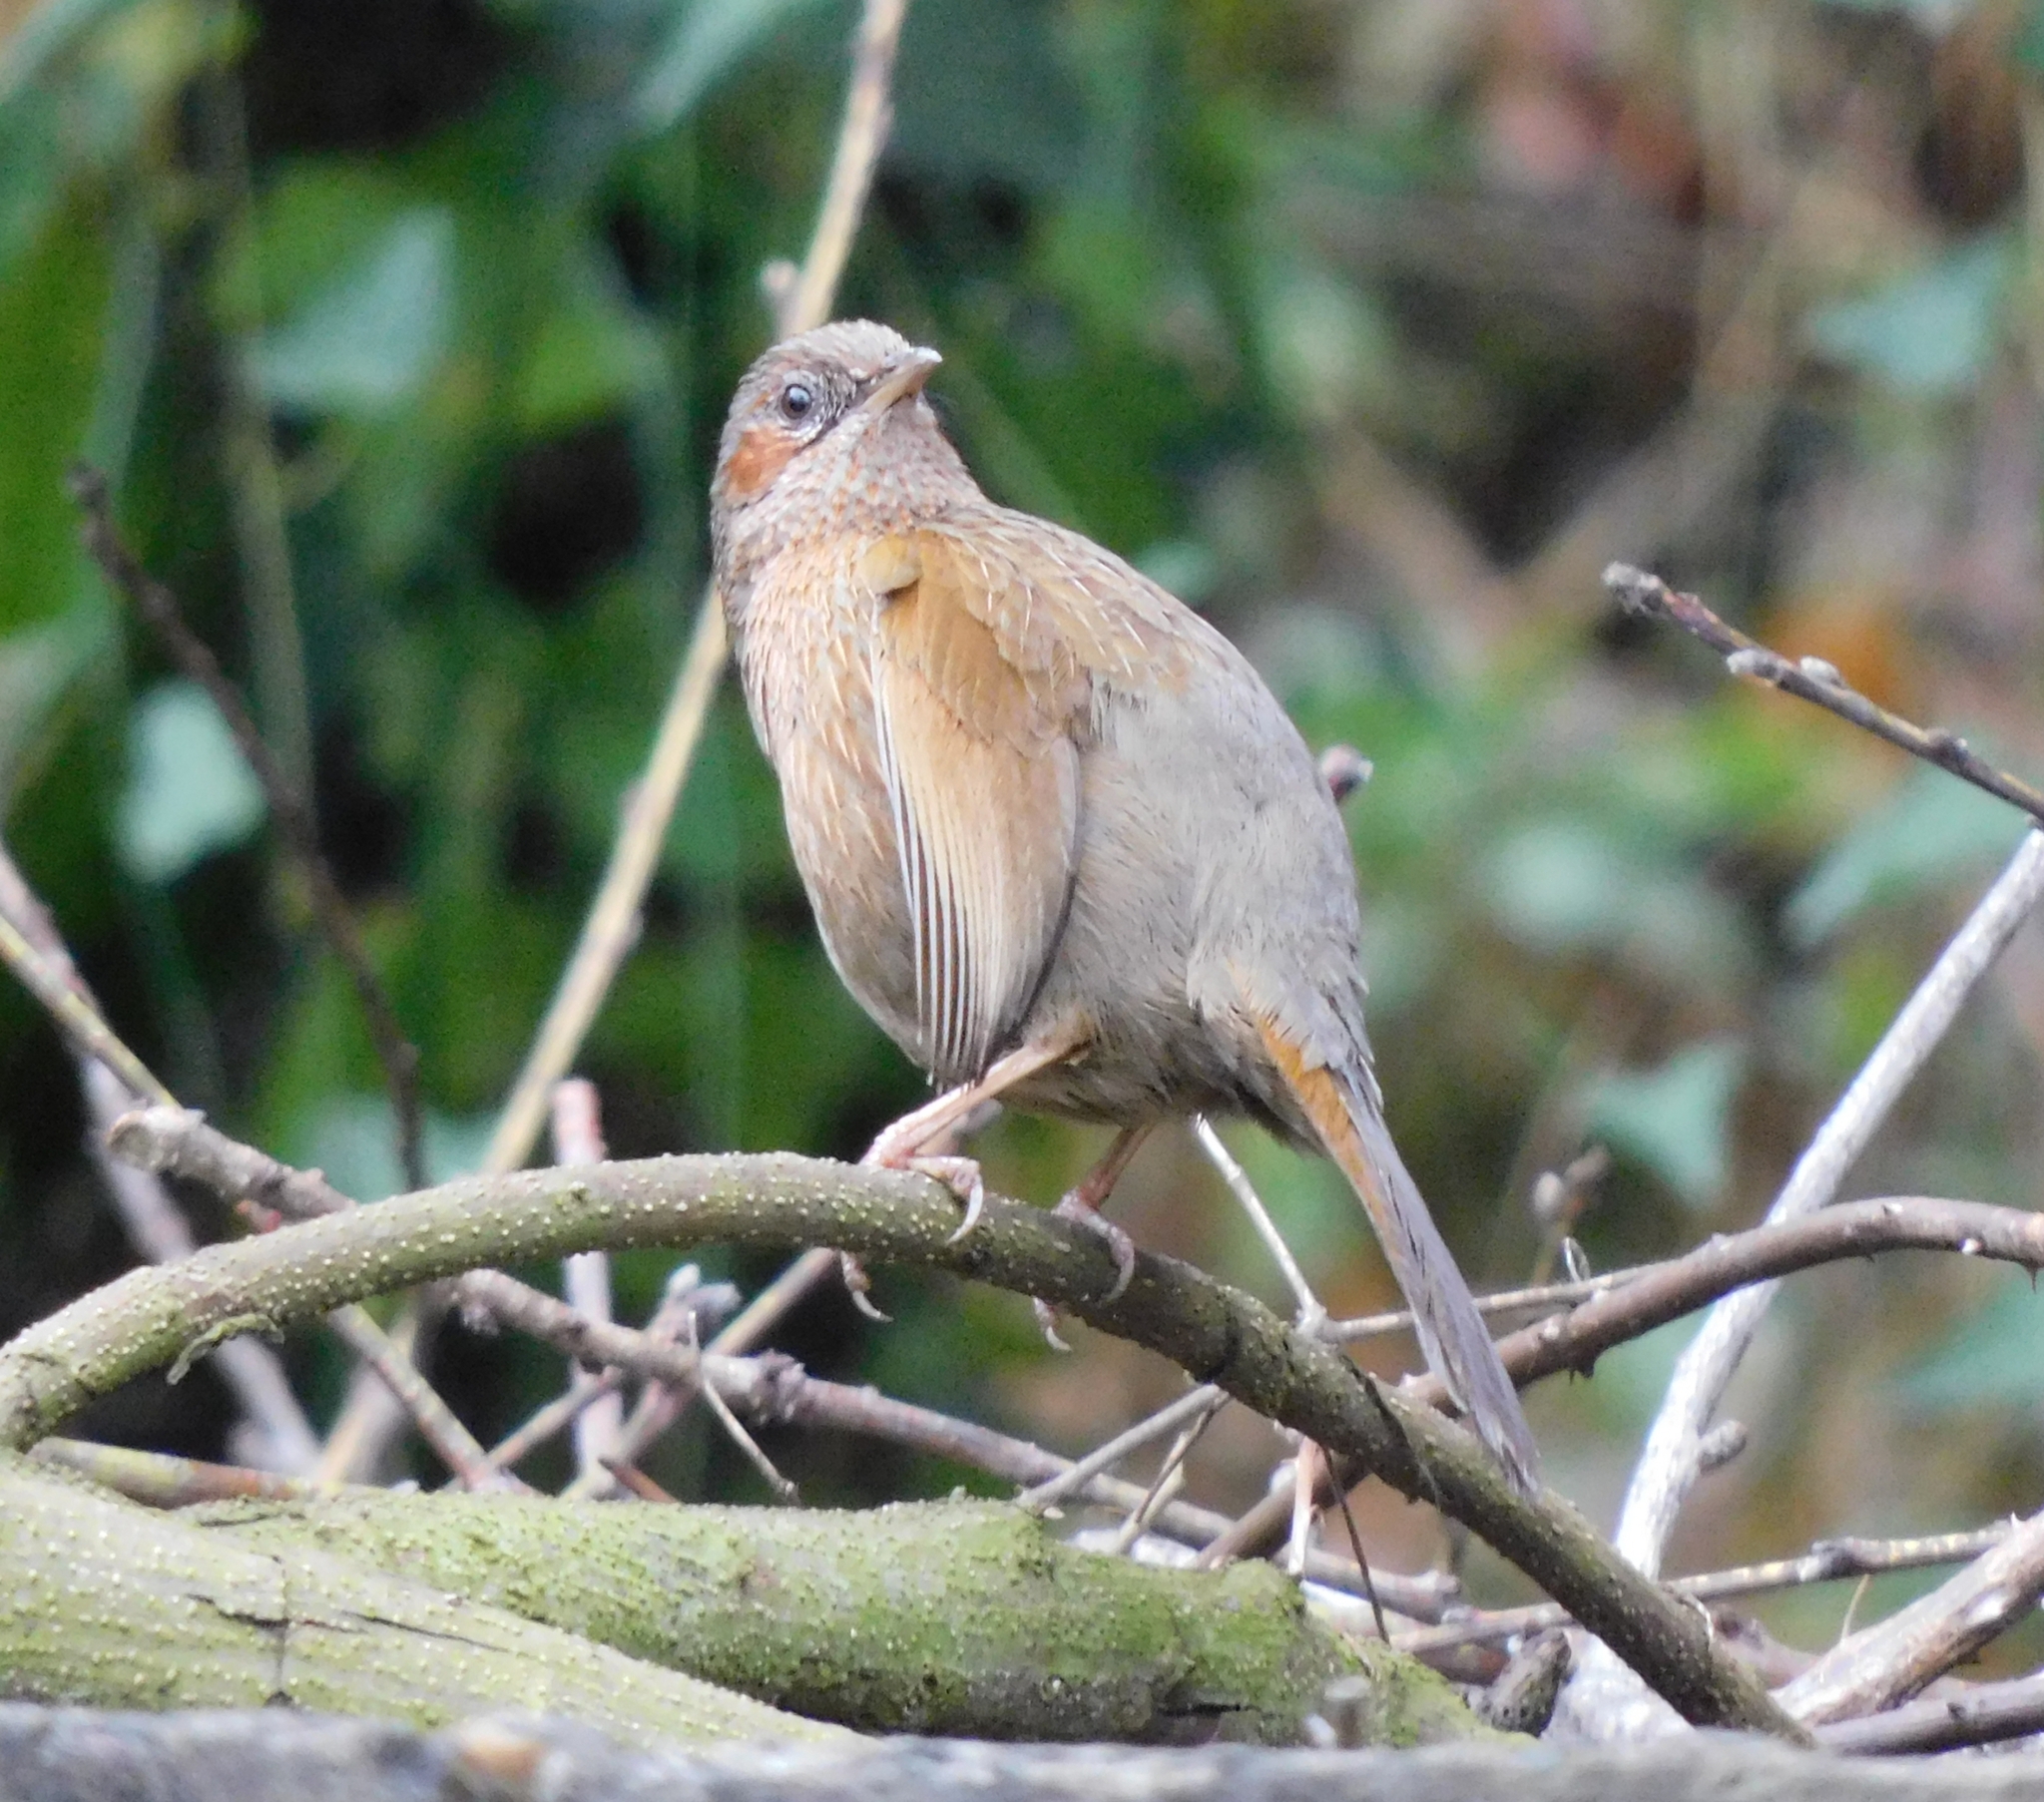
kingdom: Animalia
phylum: Chordata
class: Aves
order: Passeriformes
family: Leiothrichidae
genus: Trochalopteron
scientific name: Trochalopteron lineatum
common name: Streaked laughingthrush
